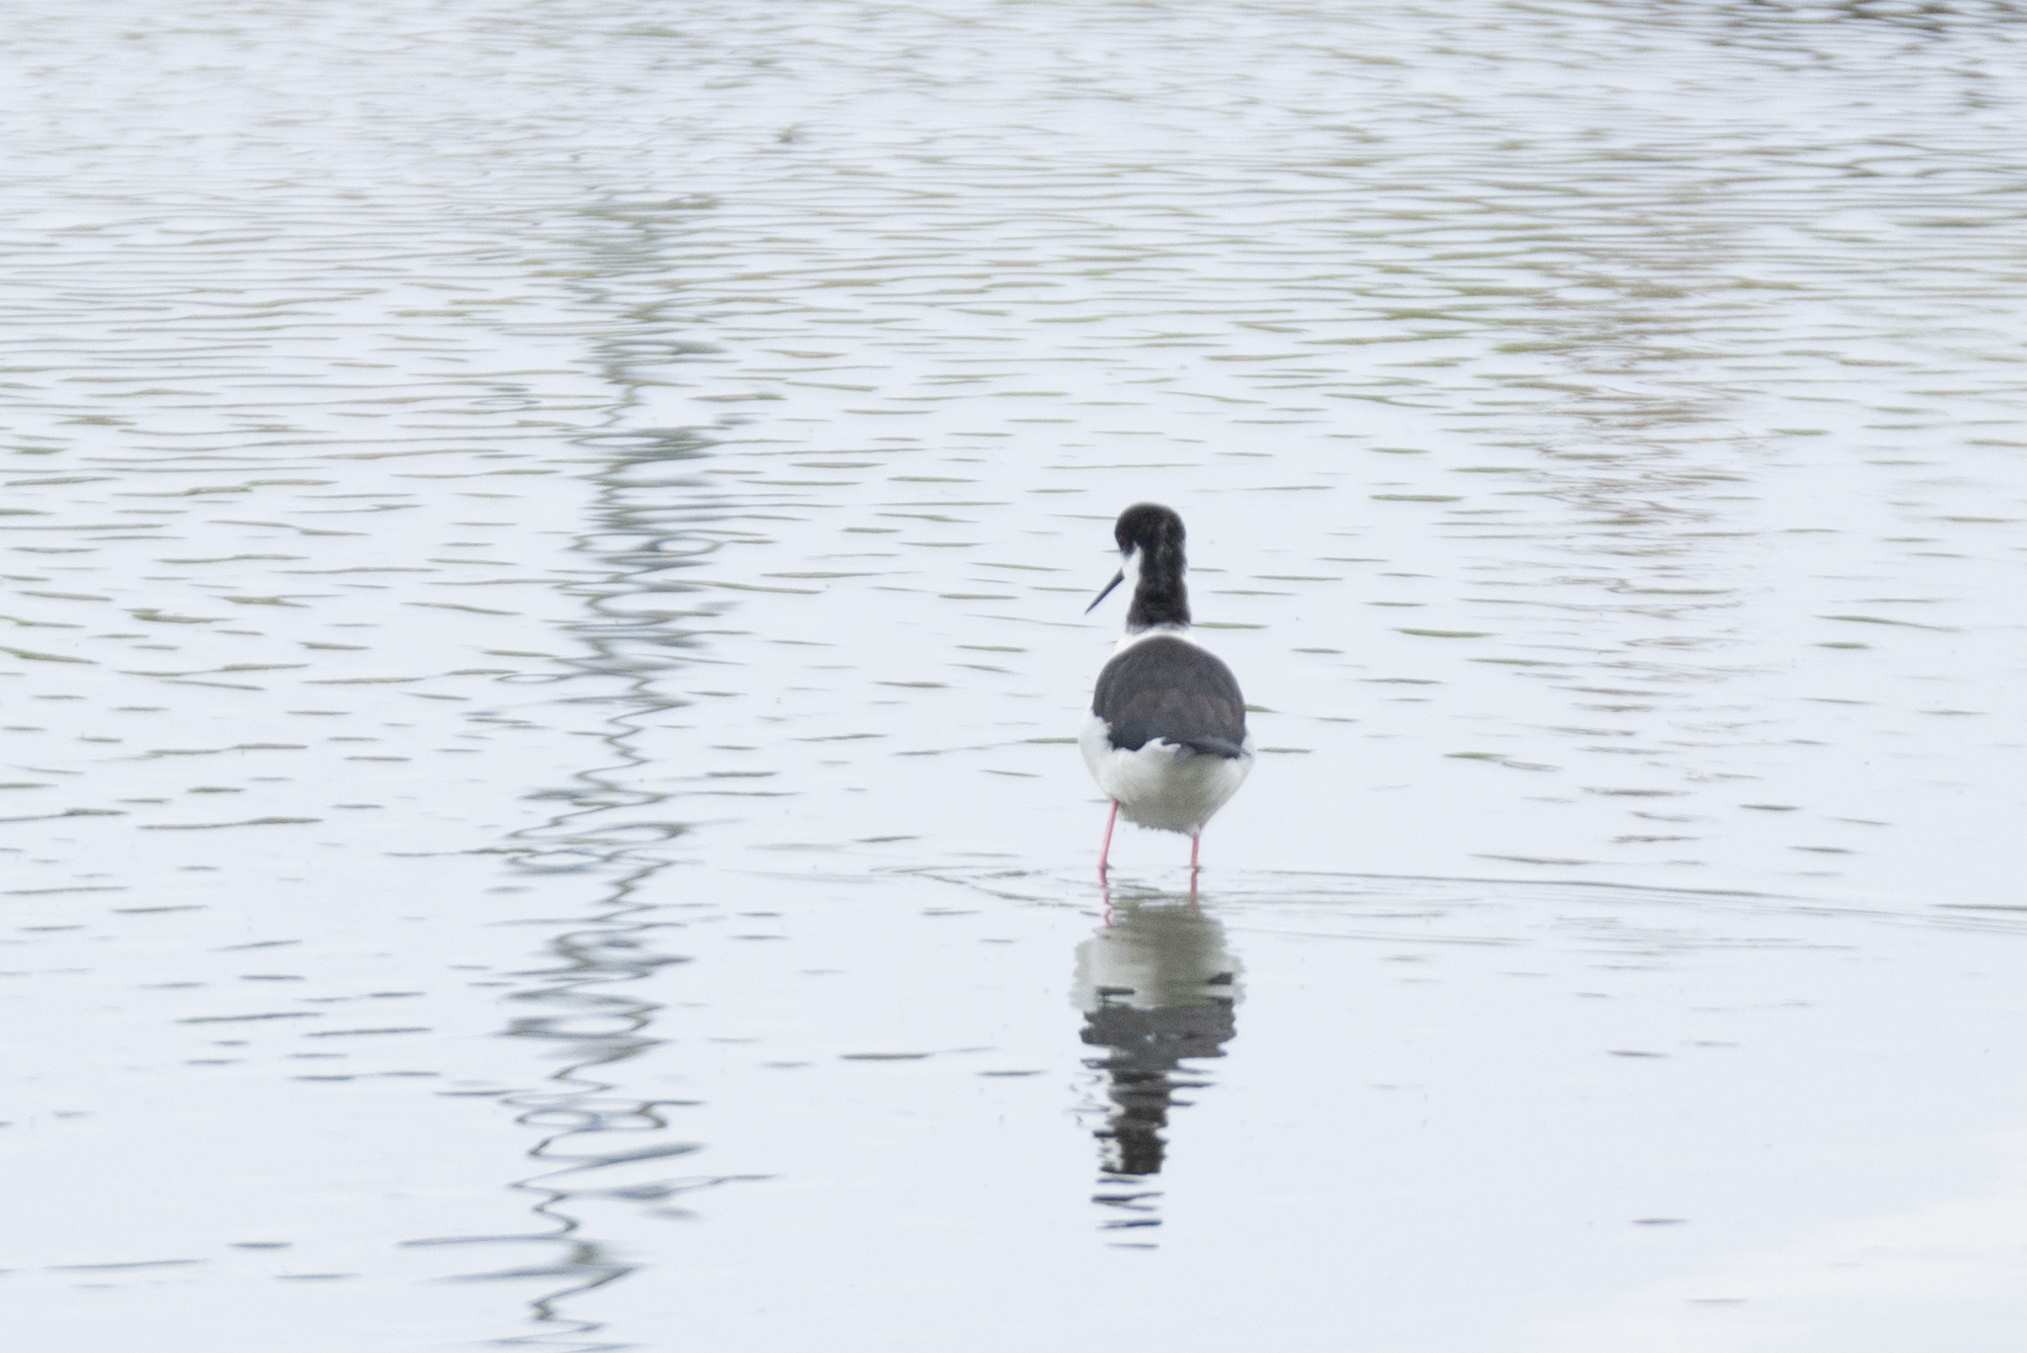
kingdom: Animalia
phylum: Chordata
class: Aves
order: Charadriiformes
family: Recurvirostridae
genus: Himantopus
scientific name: Himantopus himantopus
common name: Black-winged stilt
